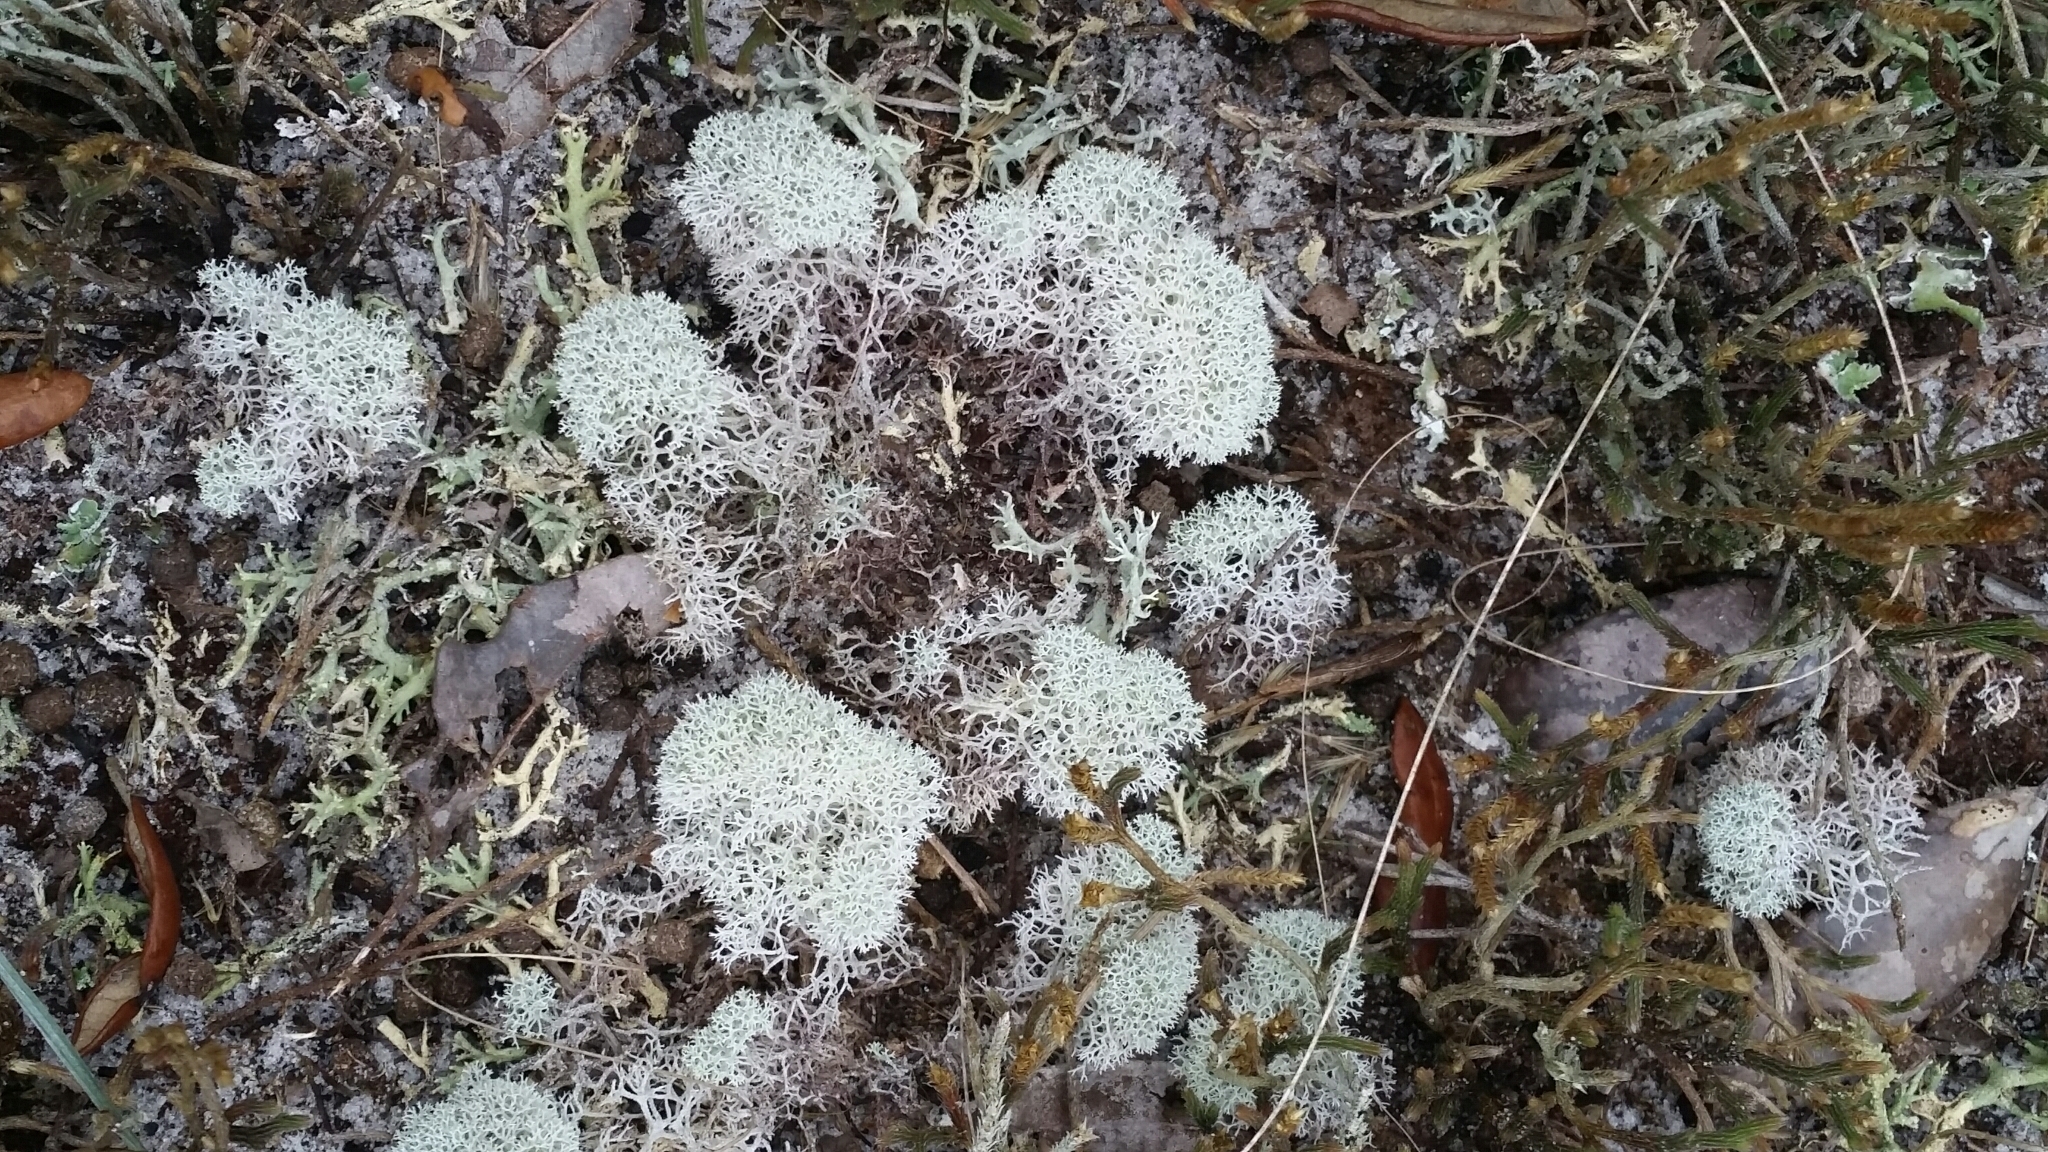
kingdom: Fungi
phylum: Ascomycota
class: Lecanoromycetes
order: Lecanorales
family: Cladoniaceae
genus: Cladonia
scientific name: Cladonia evansii
